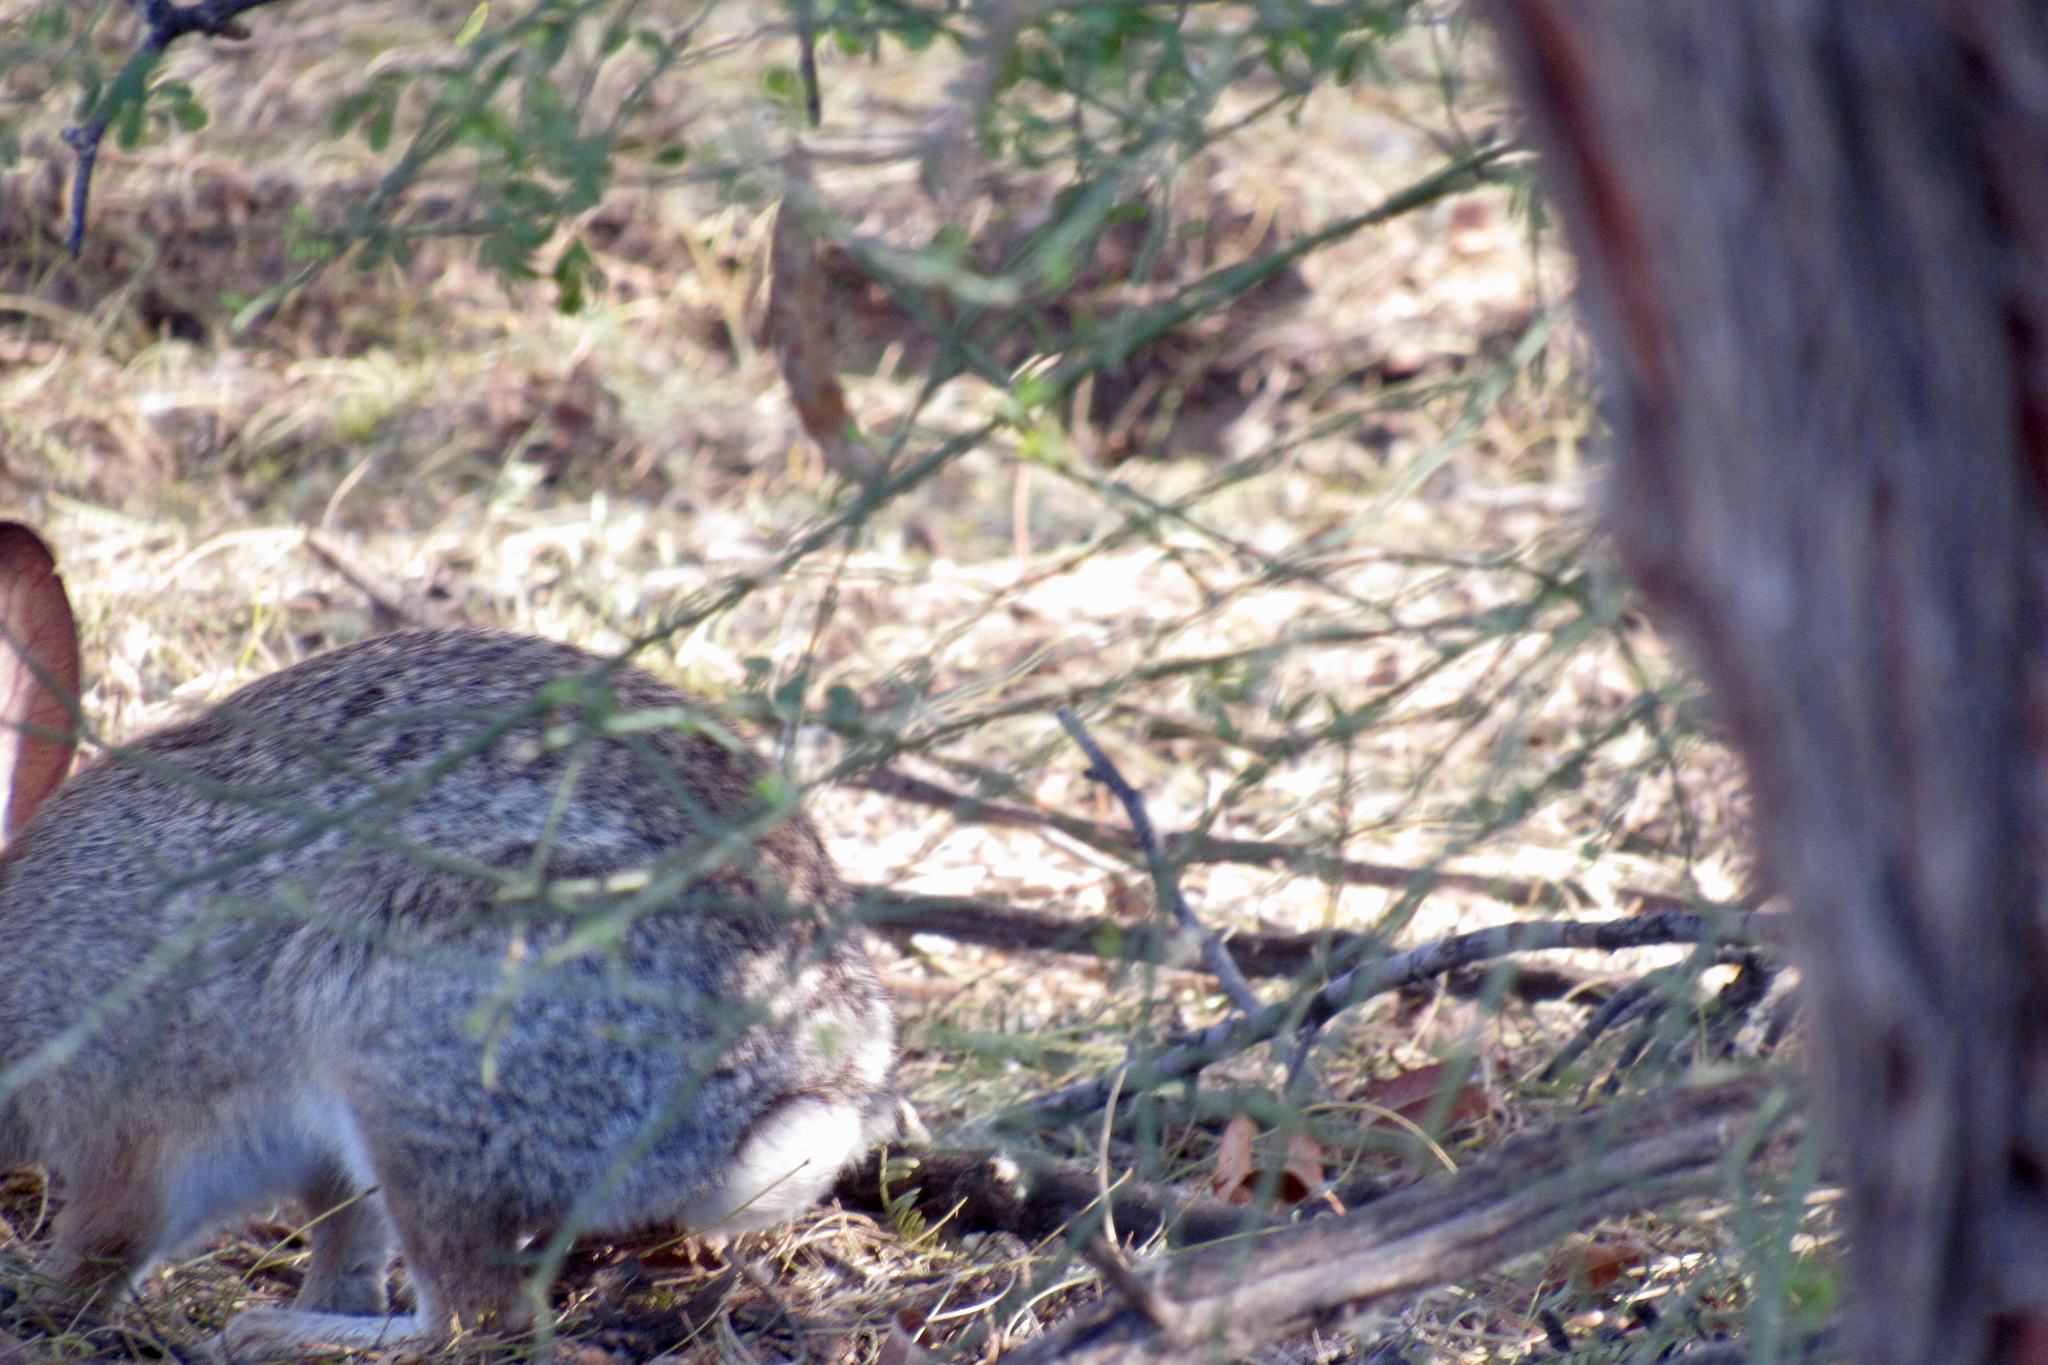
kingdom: Animalia
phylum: Chordata
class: Mammalia
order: Lagomorpha
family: Leporidae
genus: Sylvilagus
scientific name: Sylvilagus audubonii
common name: Desert cottontail
